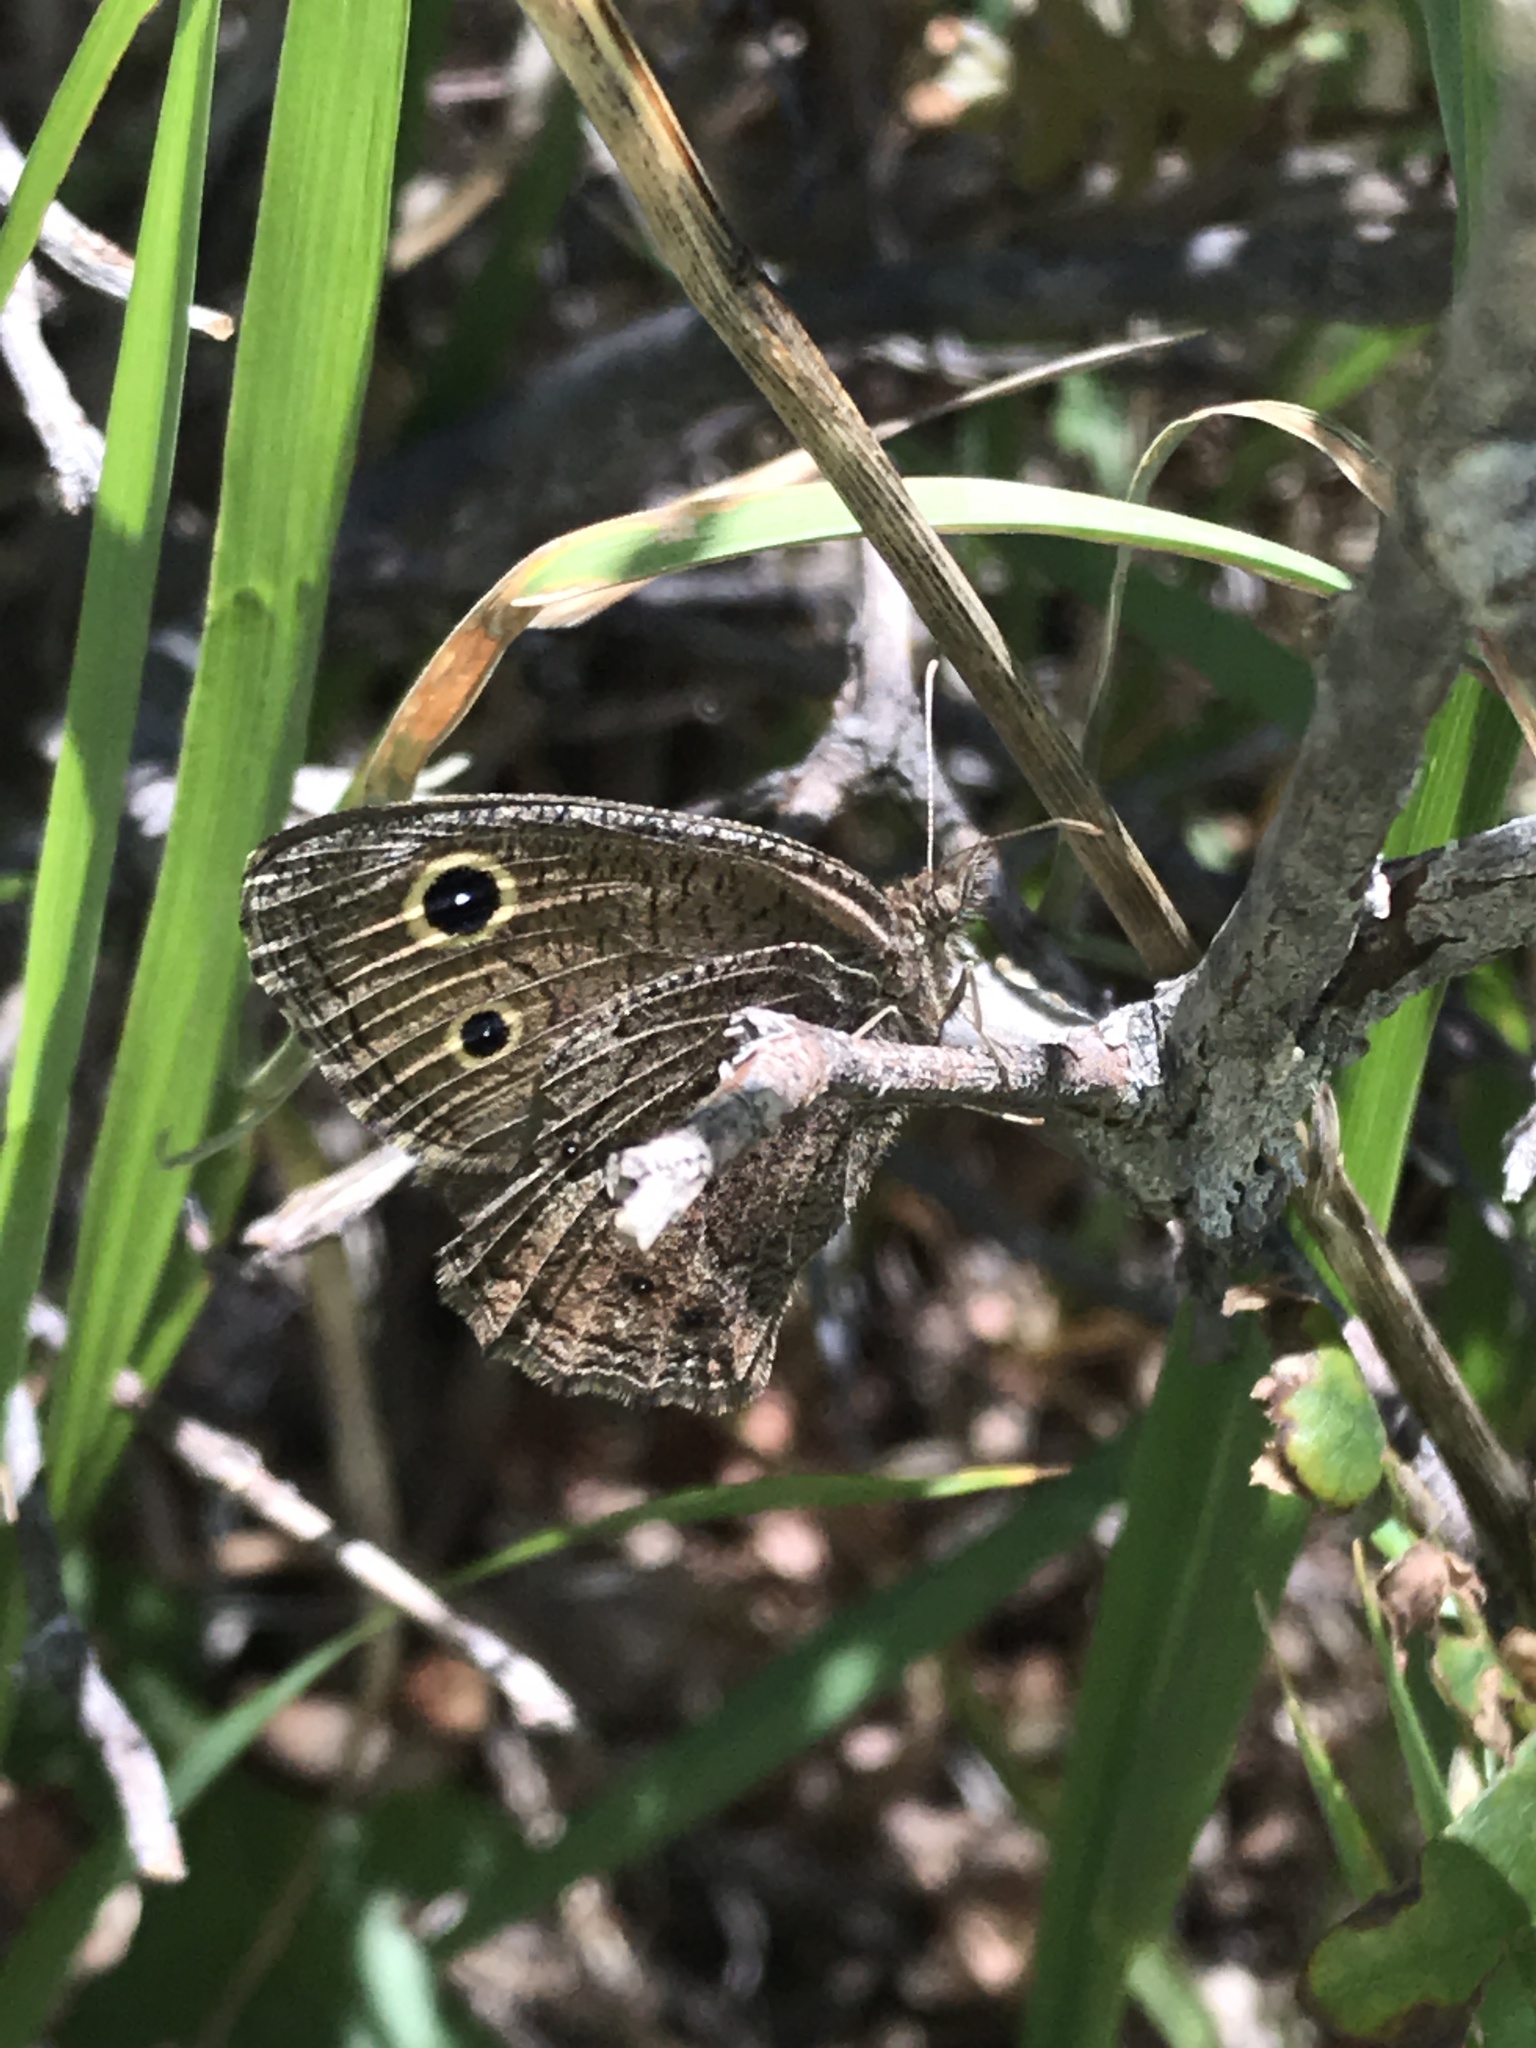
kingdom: Animalia
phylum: Arthropoda
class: Insecta
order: Lepidoptera
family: Nymphalidae
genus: Cercyonis
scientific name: Cercyonis oetus
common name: Small wood-nymph
